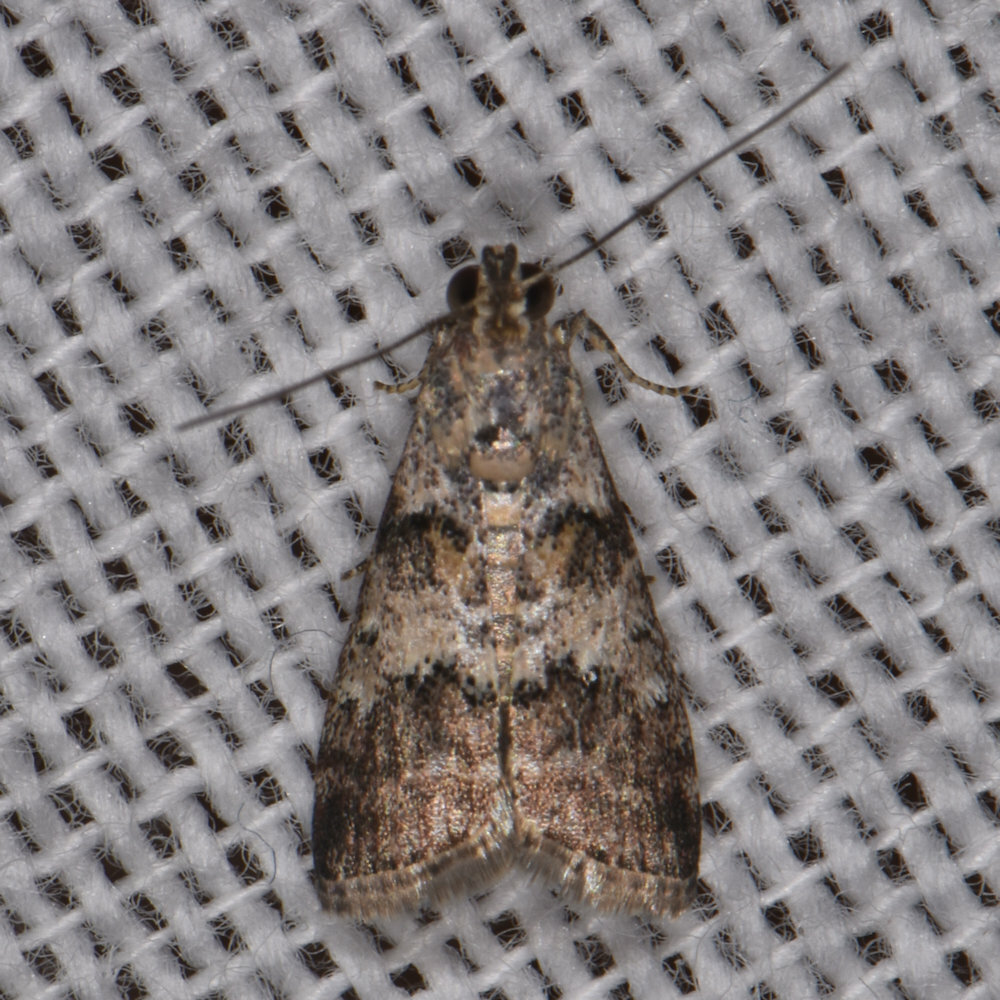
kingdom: Animalia
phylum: Arthropoda
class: Insecta
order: Lepidoptera
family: Pyralidae
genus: Phidotricha
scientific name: Phidotricha erigens
